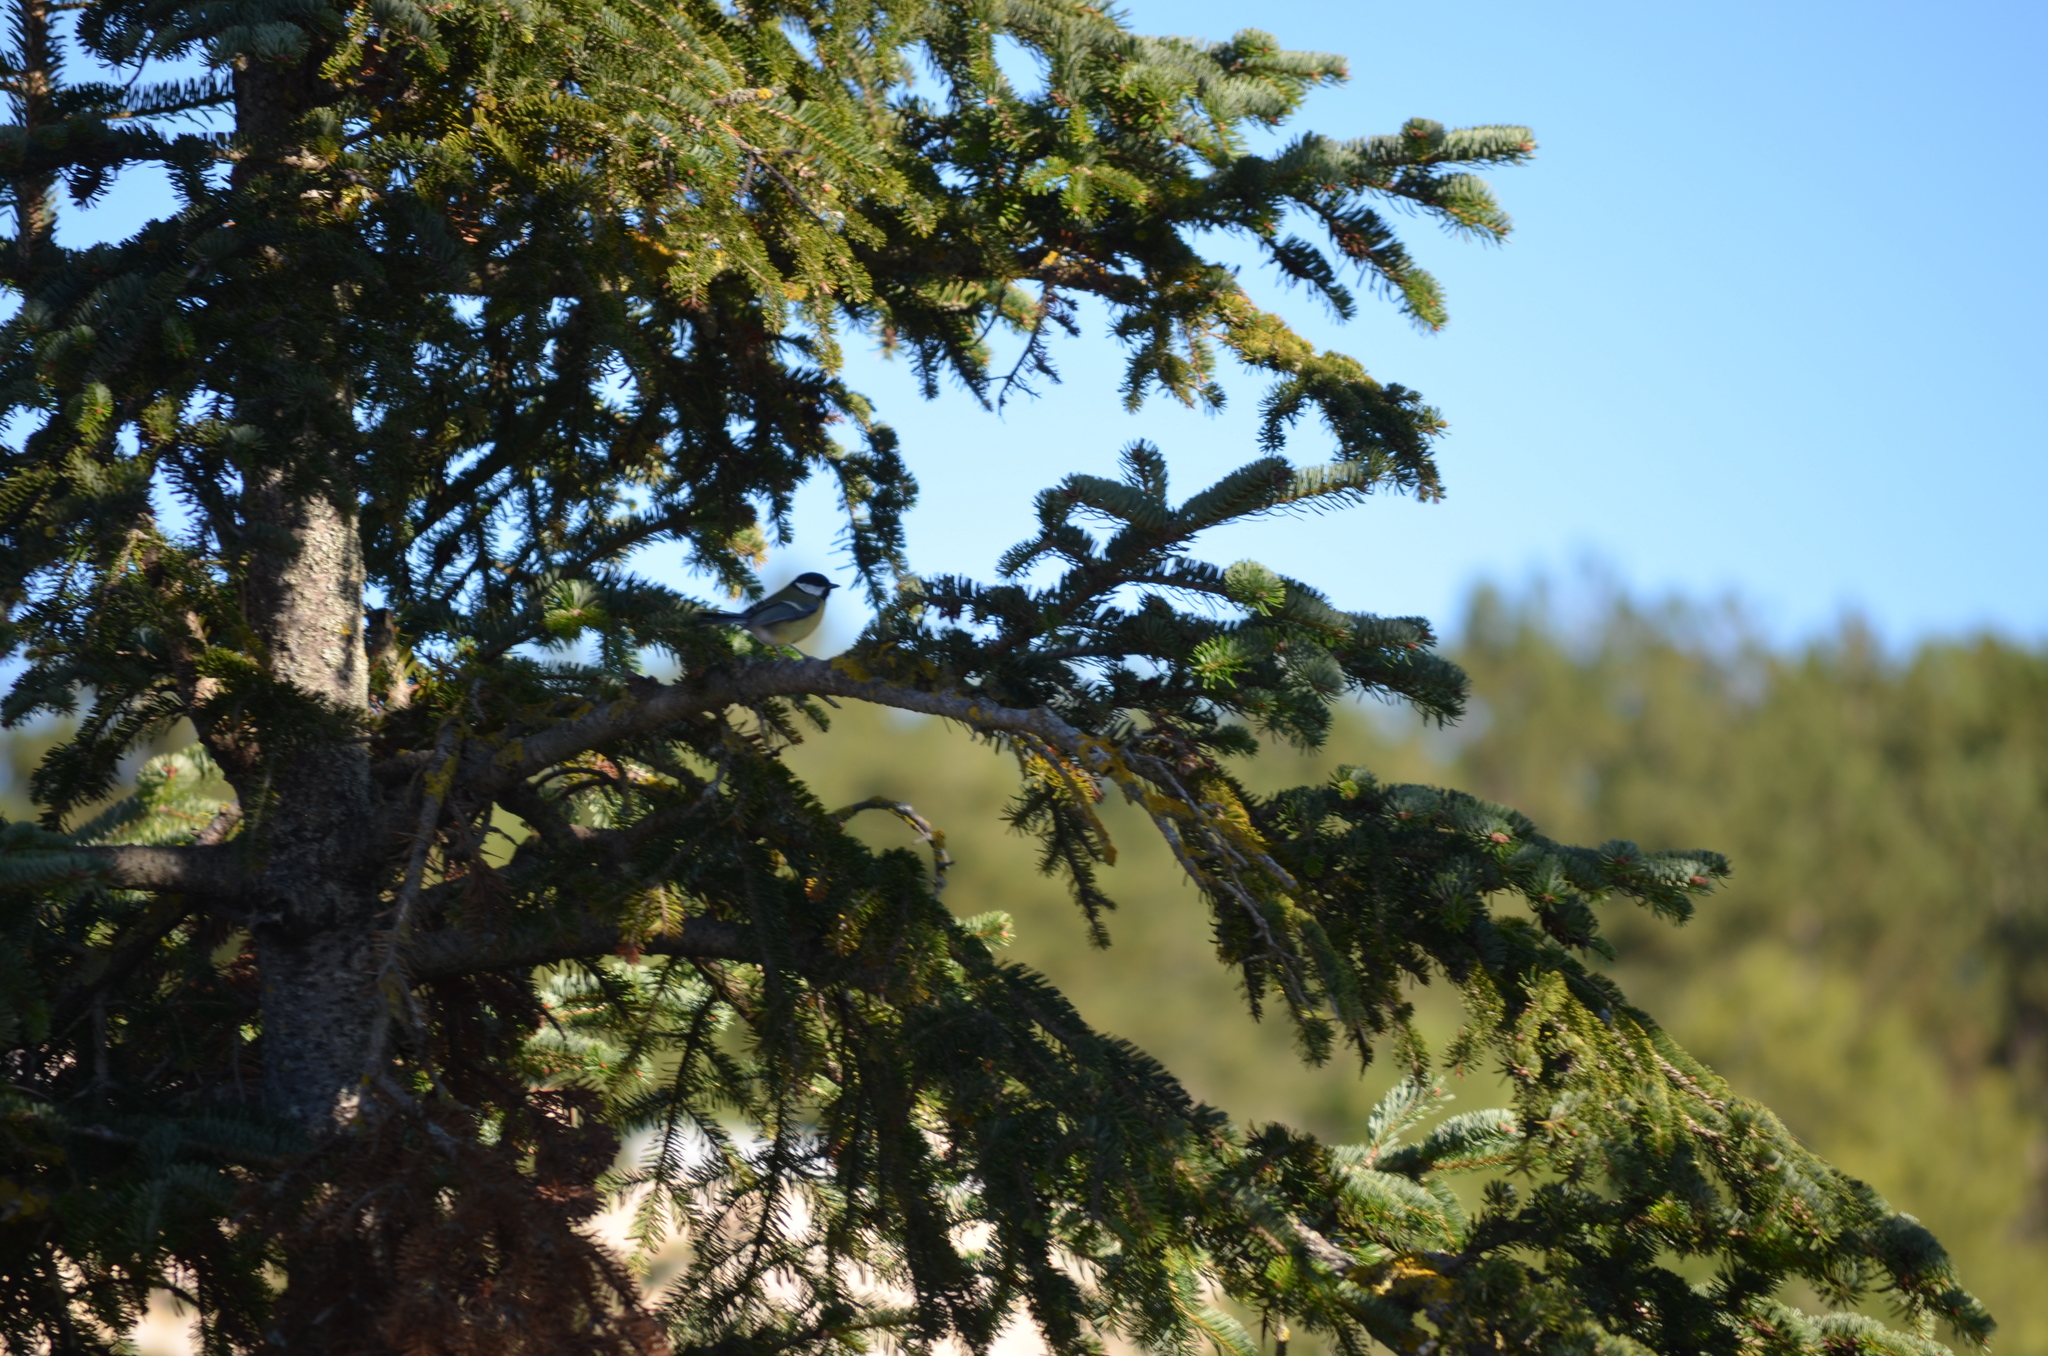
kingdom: Animalia
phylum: Chordata
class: Aves
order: Passeriformes
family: Paridae
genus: Parus
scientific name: Parus major
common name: Great tit
